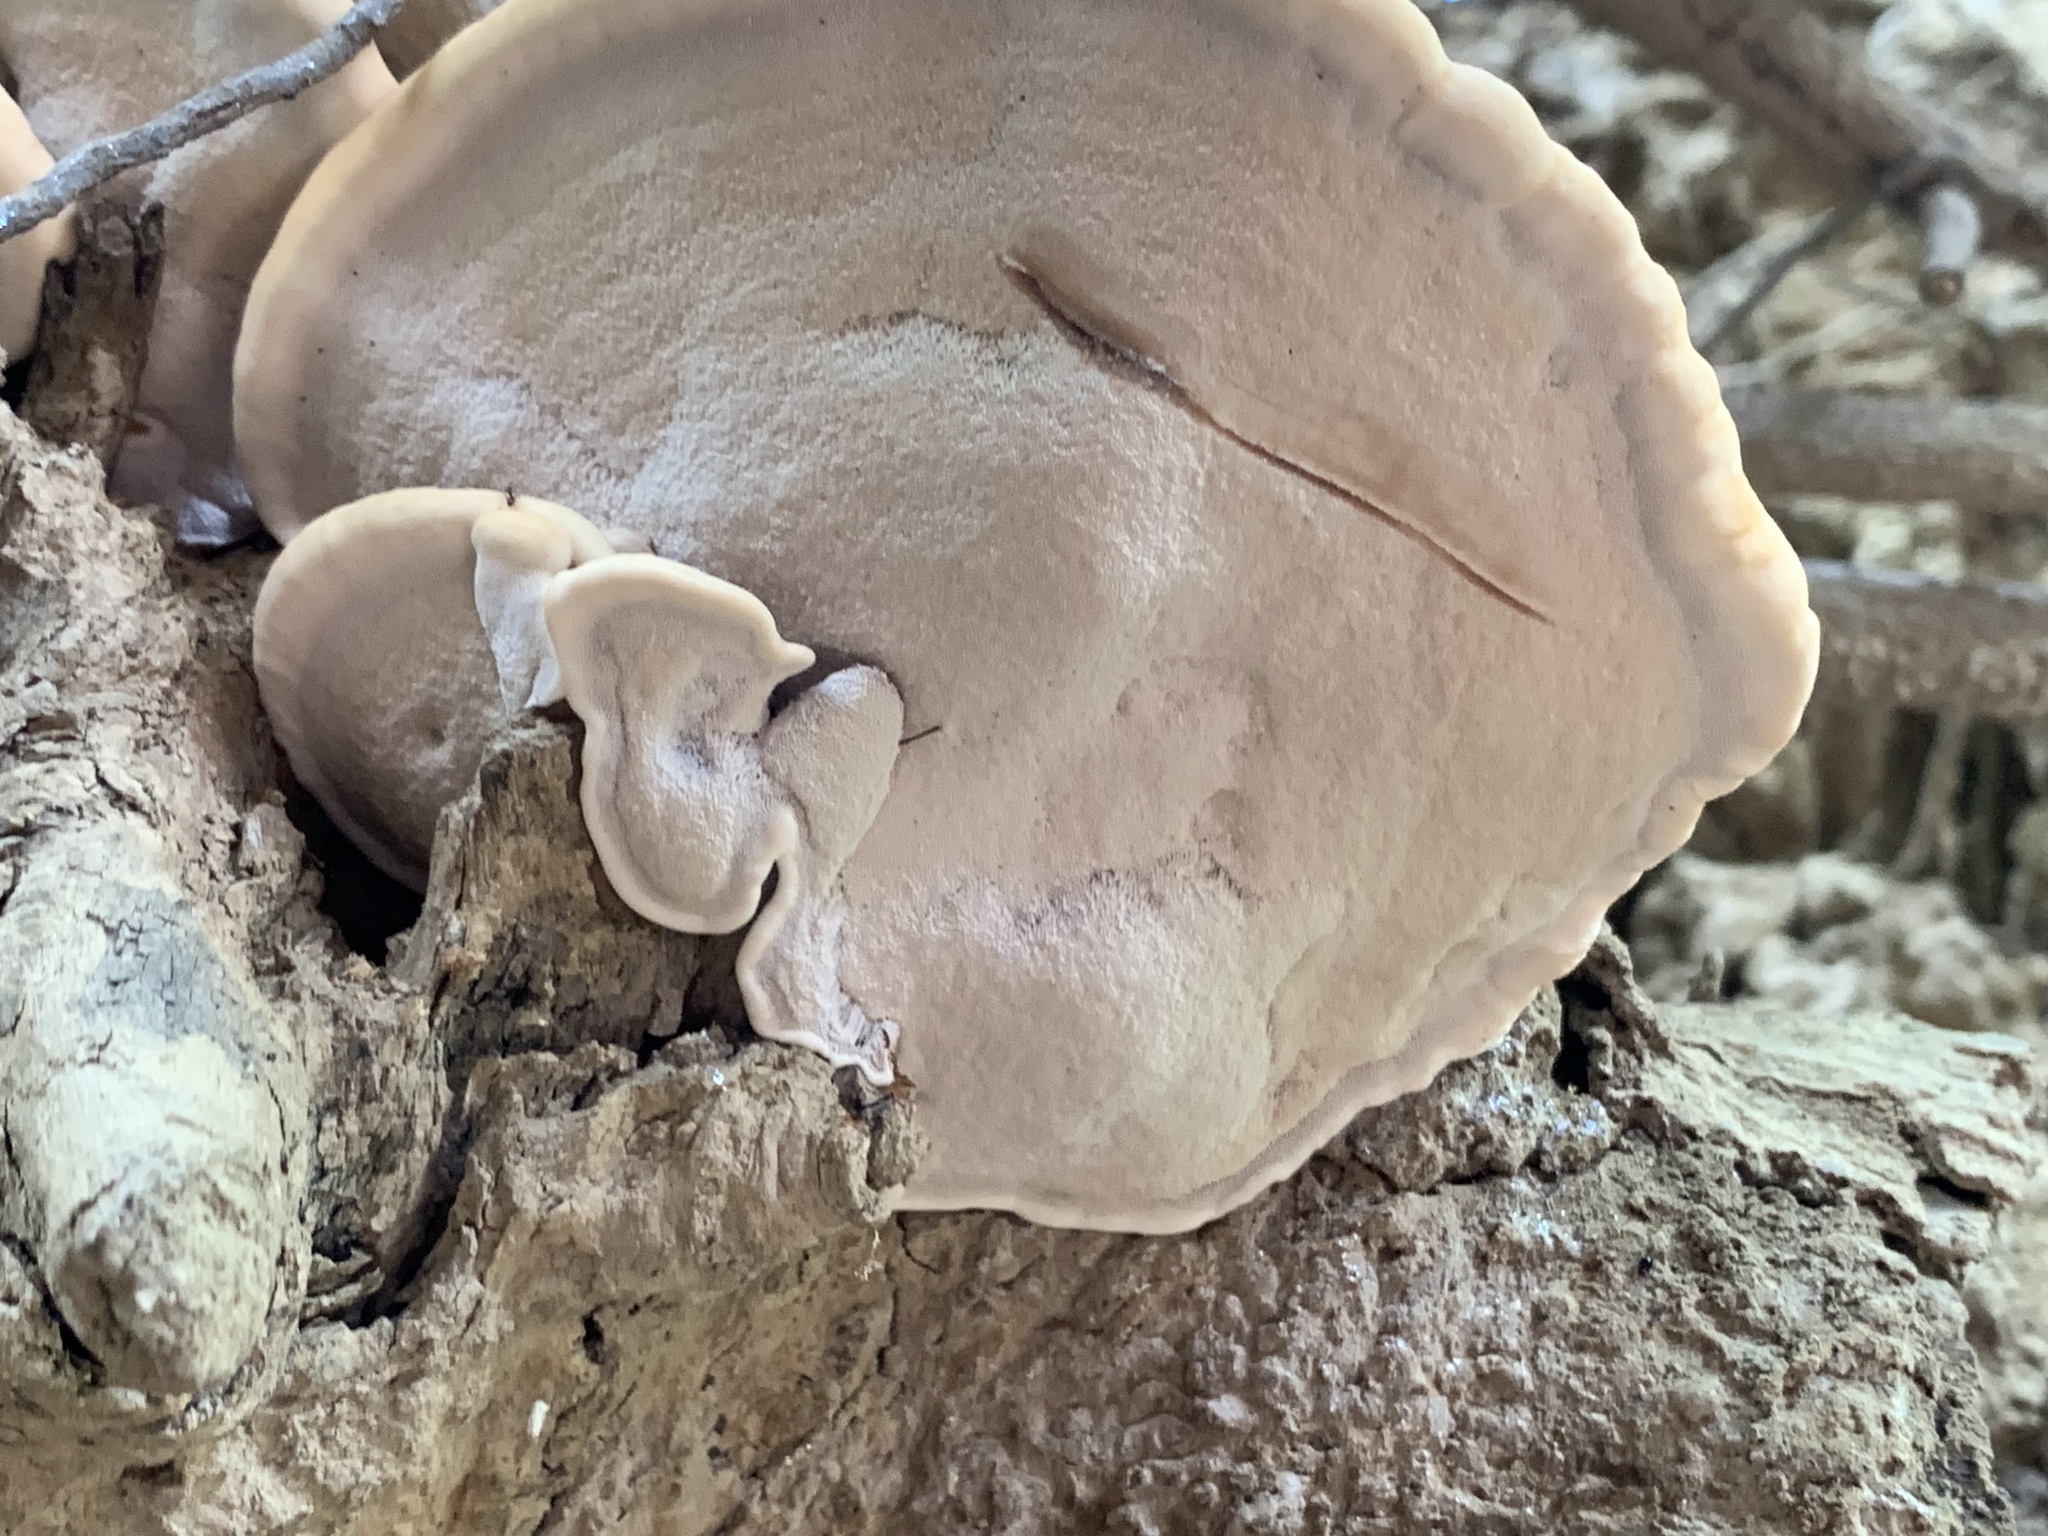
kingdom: Fungi
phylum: Basidiomycota
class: Agaricomycetes
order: Polyporales
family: Polyporaceae
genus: Ganoderma
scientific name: Ganoderma resinaceum
